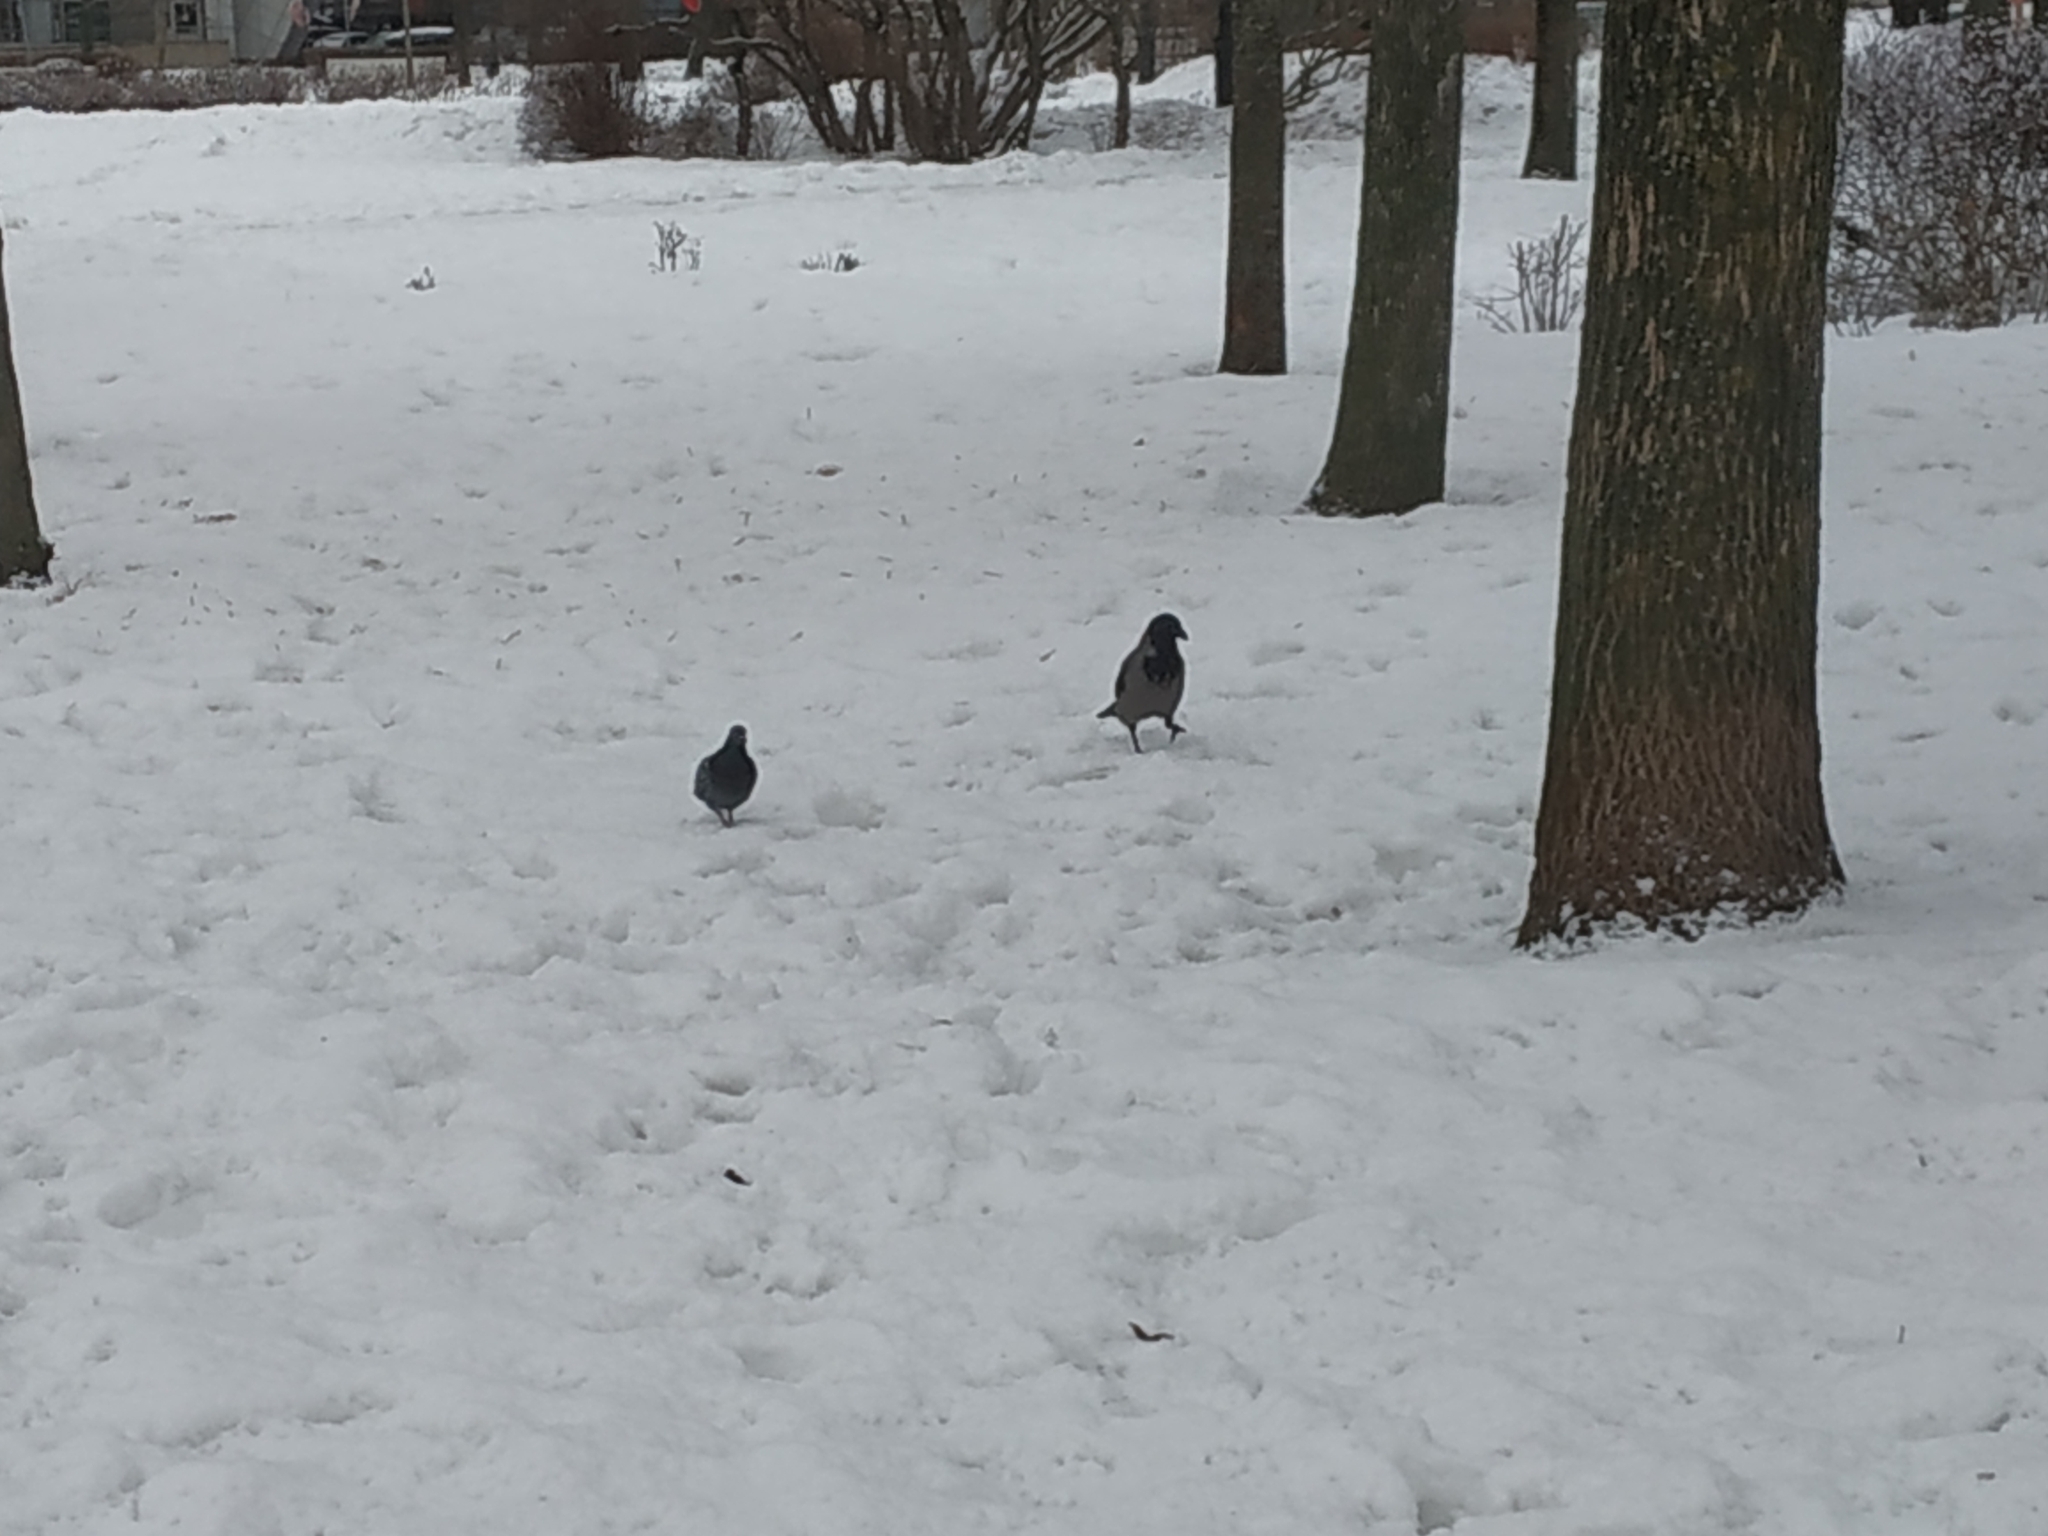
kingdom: Animalia
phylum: Chordata
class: Aves
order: Passeriformes
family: Corvidae
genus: Corvus
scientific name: Corvus cornix
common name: Hooded crow
